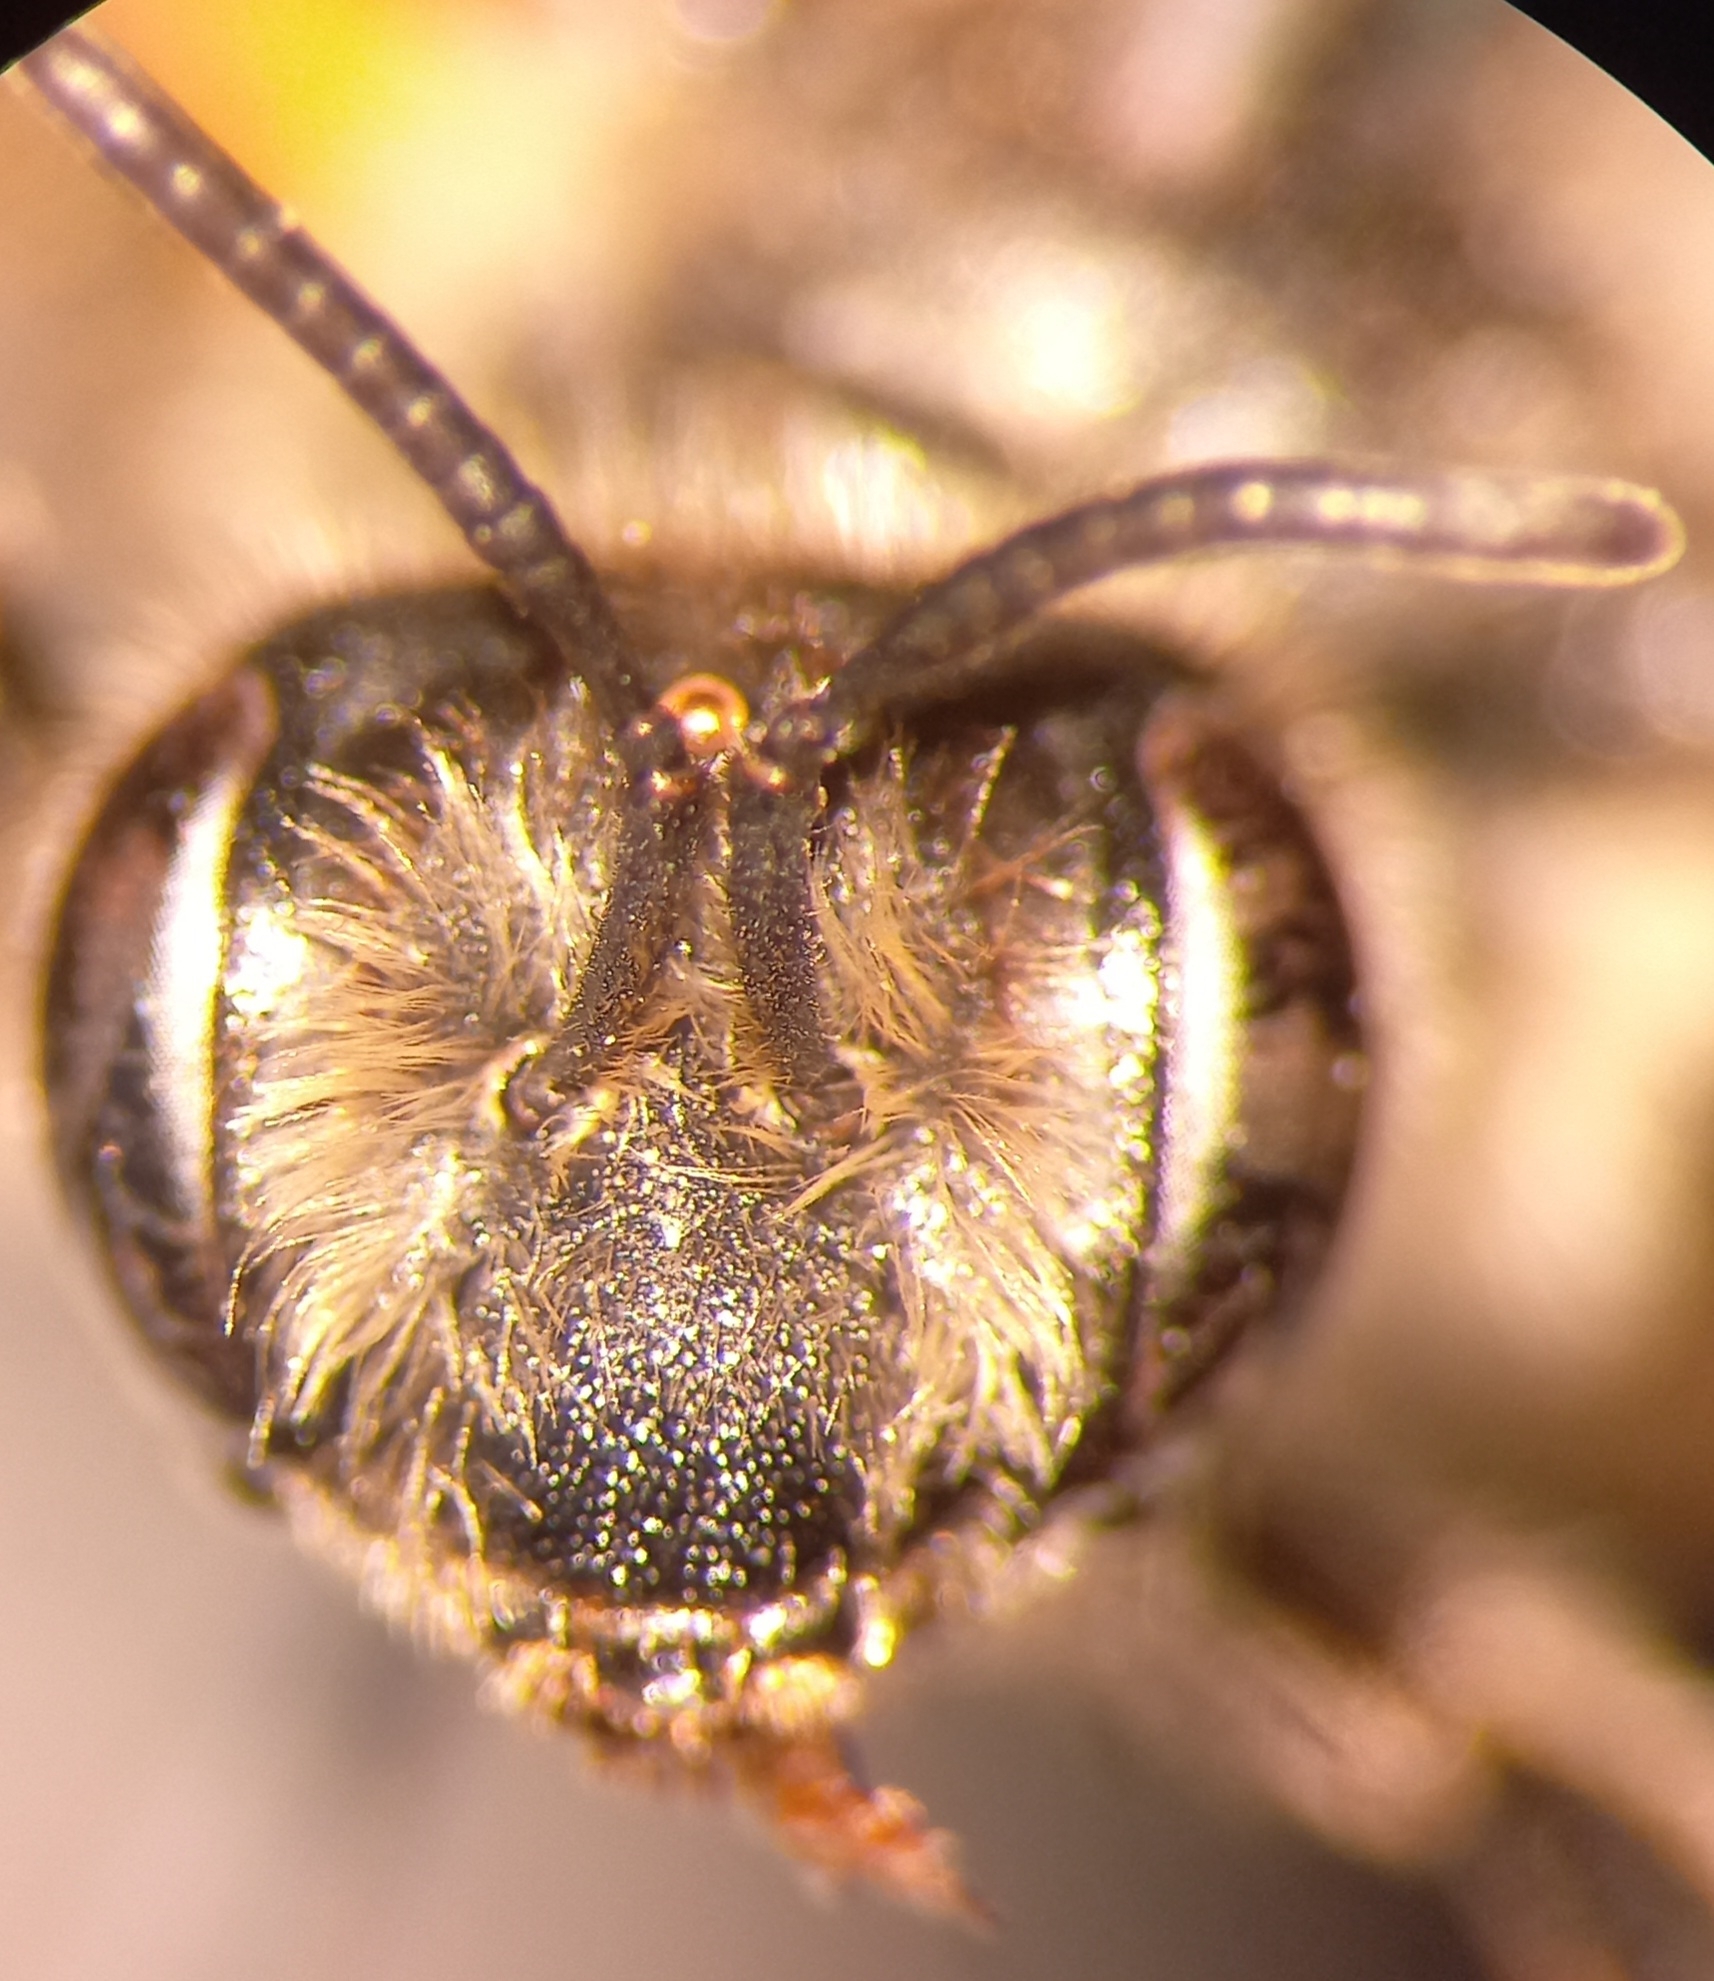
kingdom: Animalia
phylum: Arthropoda
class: Insecta
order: Hymenoptera
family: Andrenidae
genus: Andrena
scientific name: Andrena flavipes
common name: Yellow-legged mining bee
